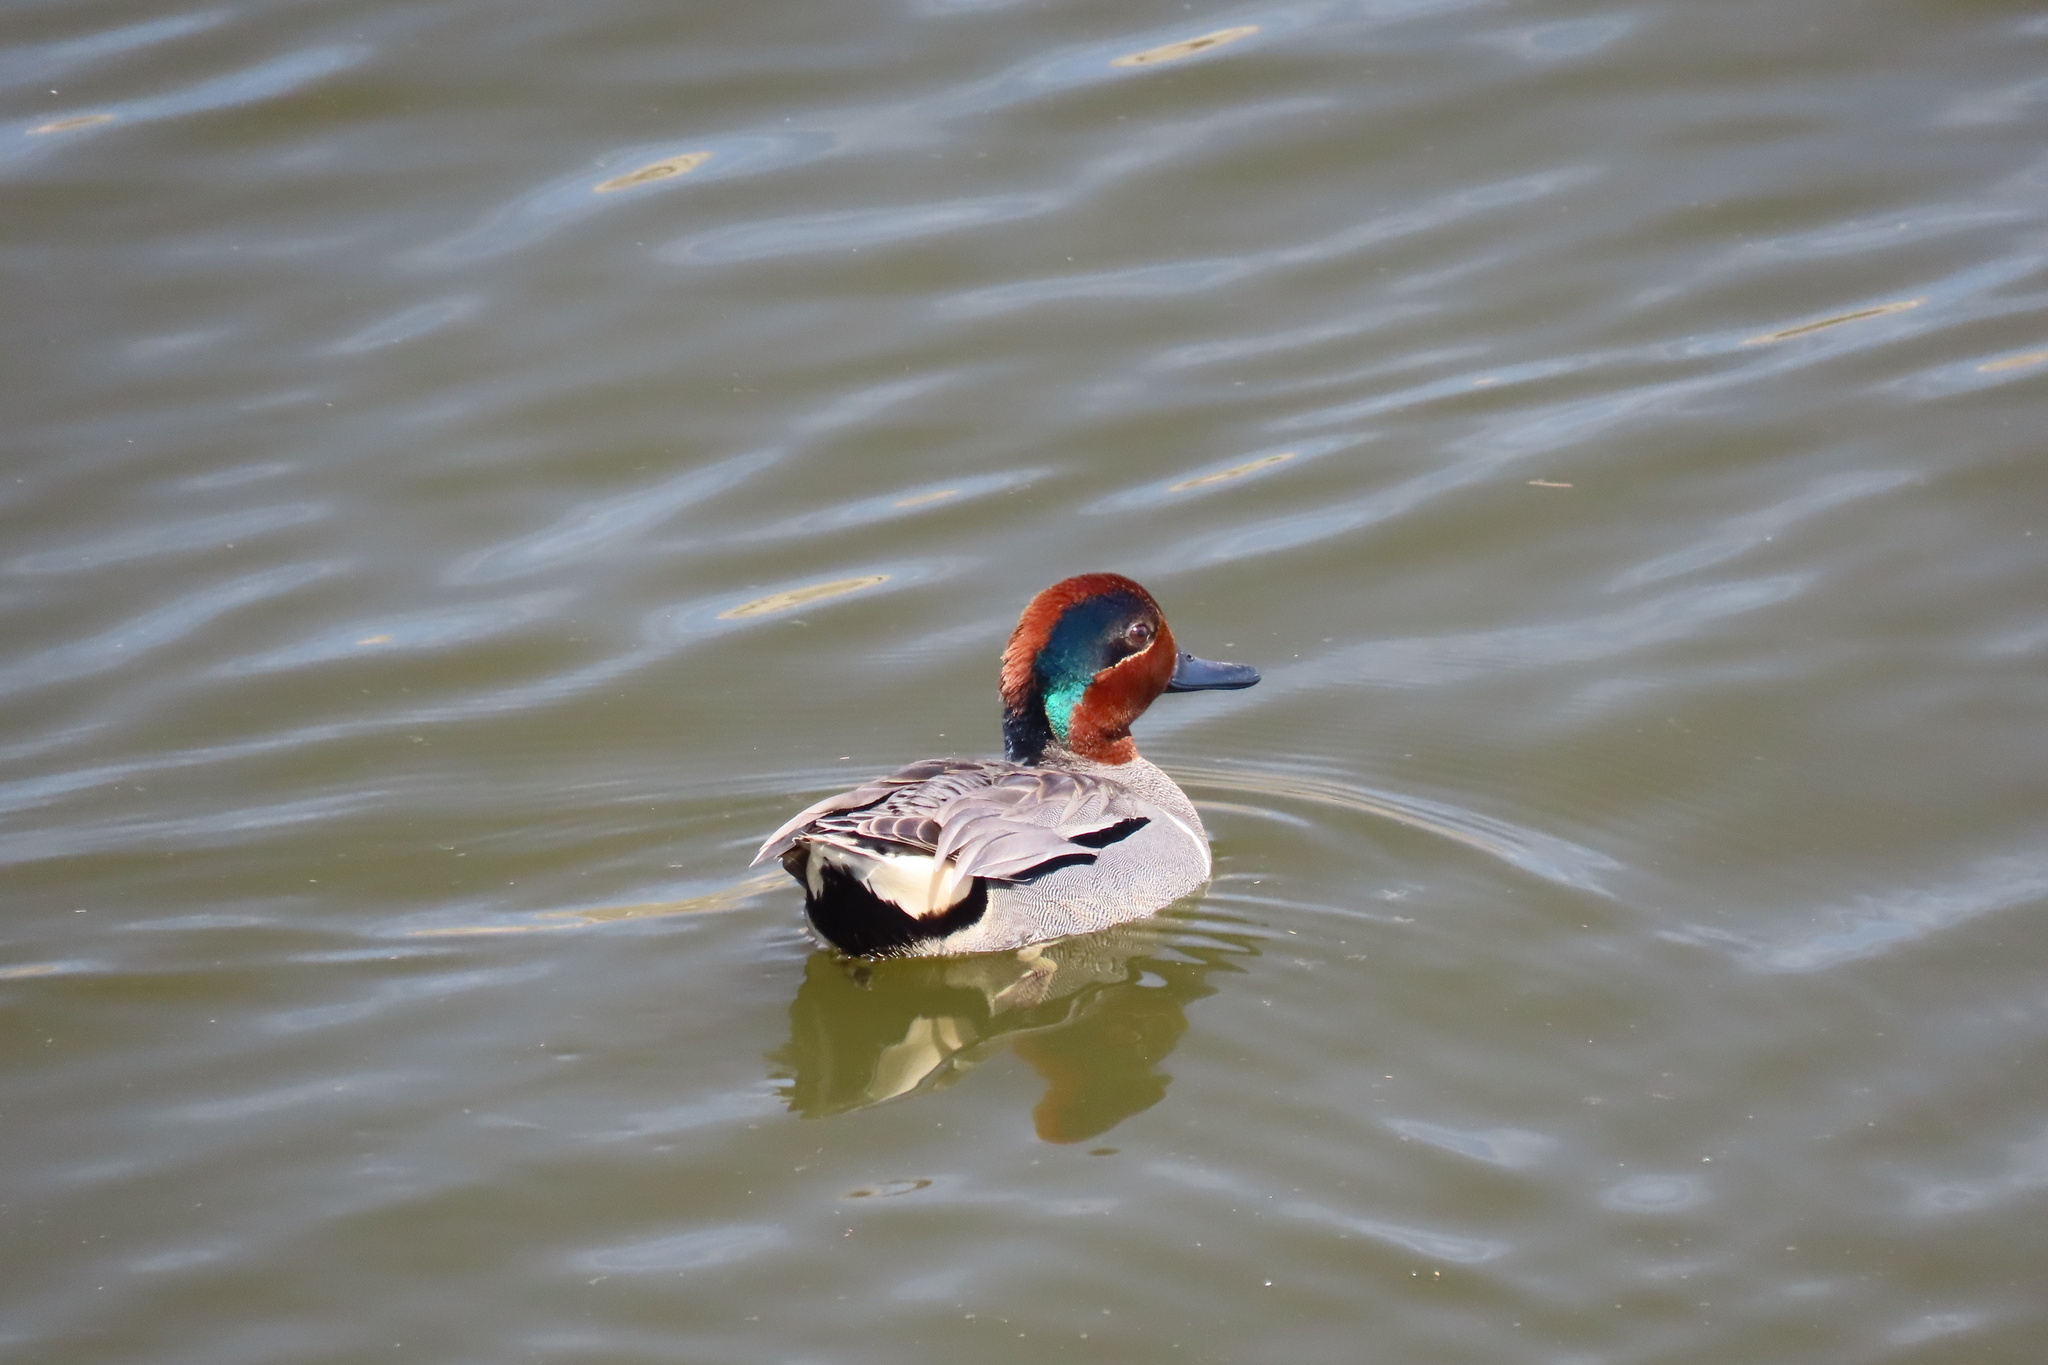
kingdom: Animalia
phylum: Chordata
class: Aves
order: Anseriformes
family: Anatidae
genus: Anas
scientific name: Anas crecca
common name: Eurasian teal
